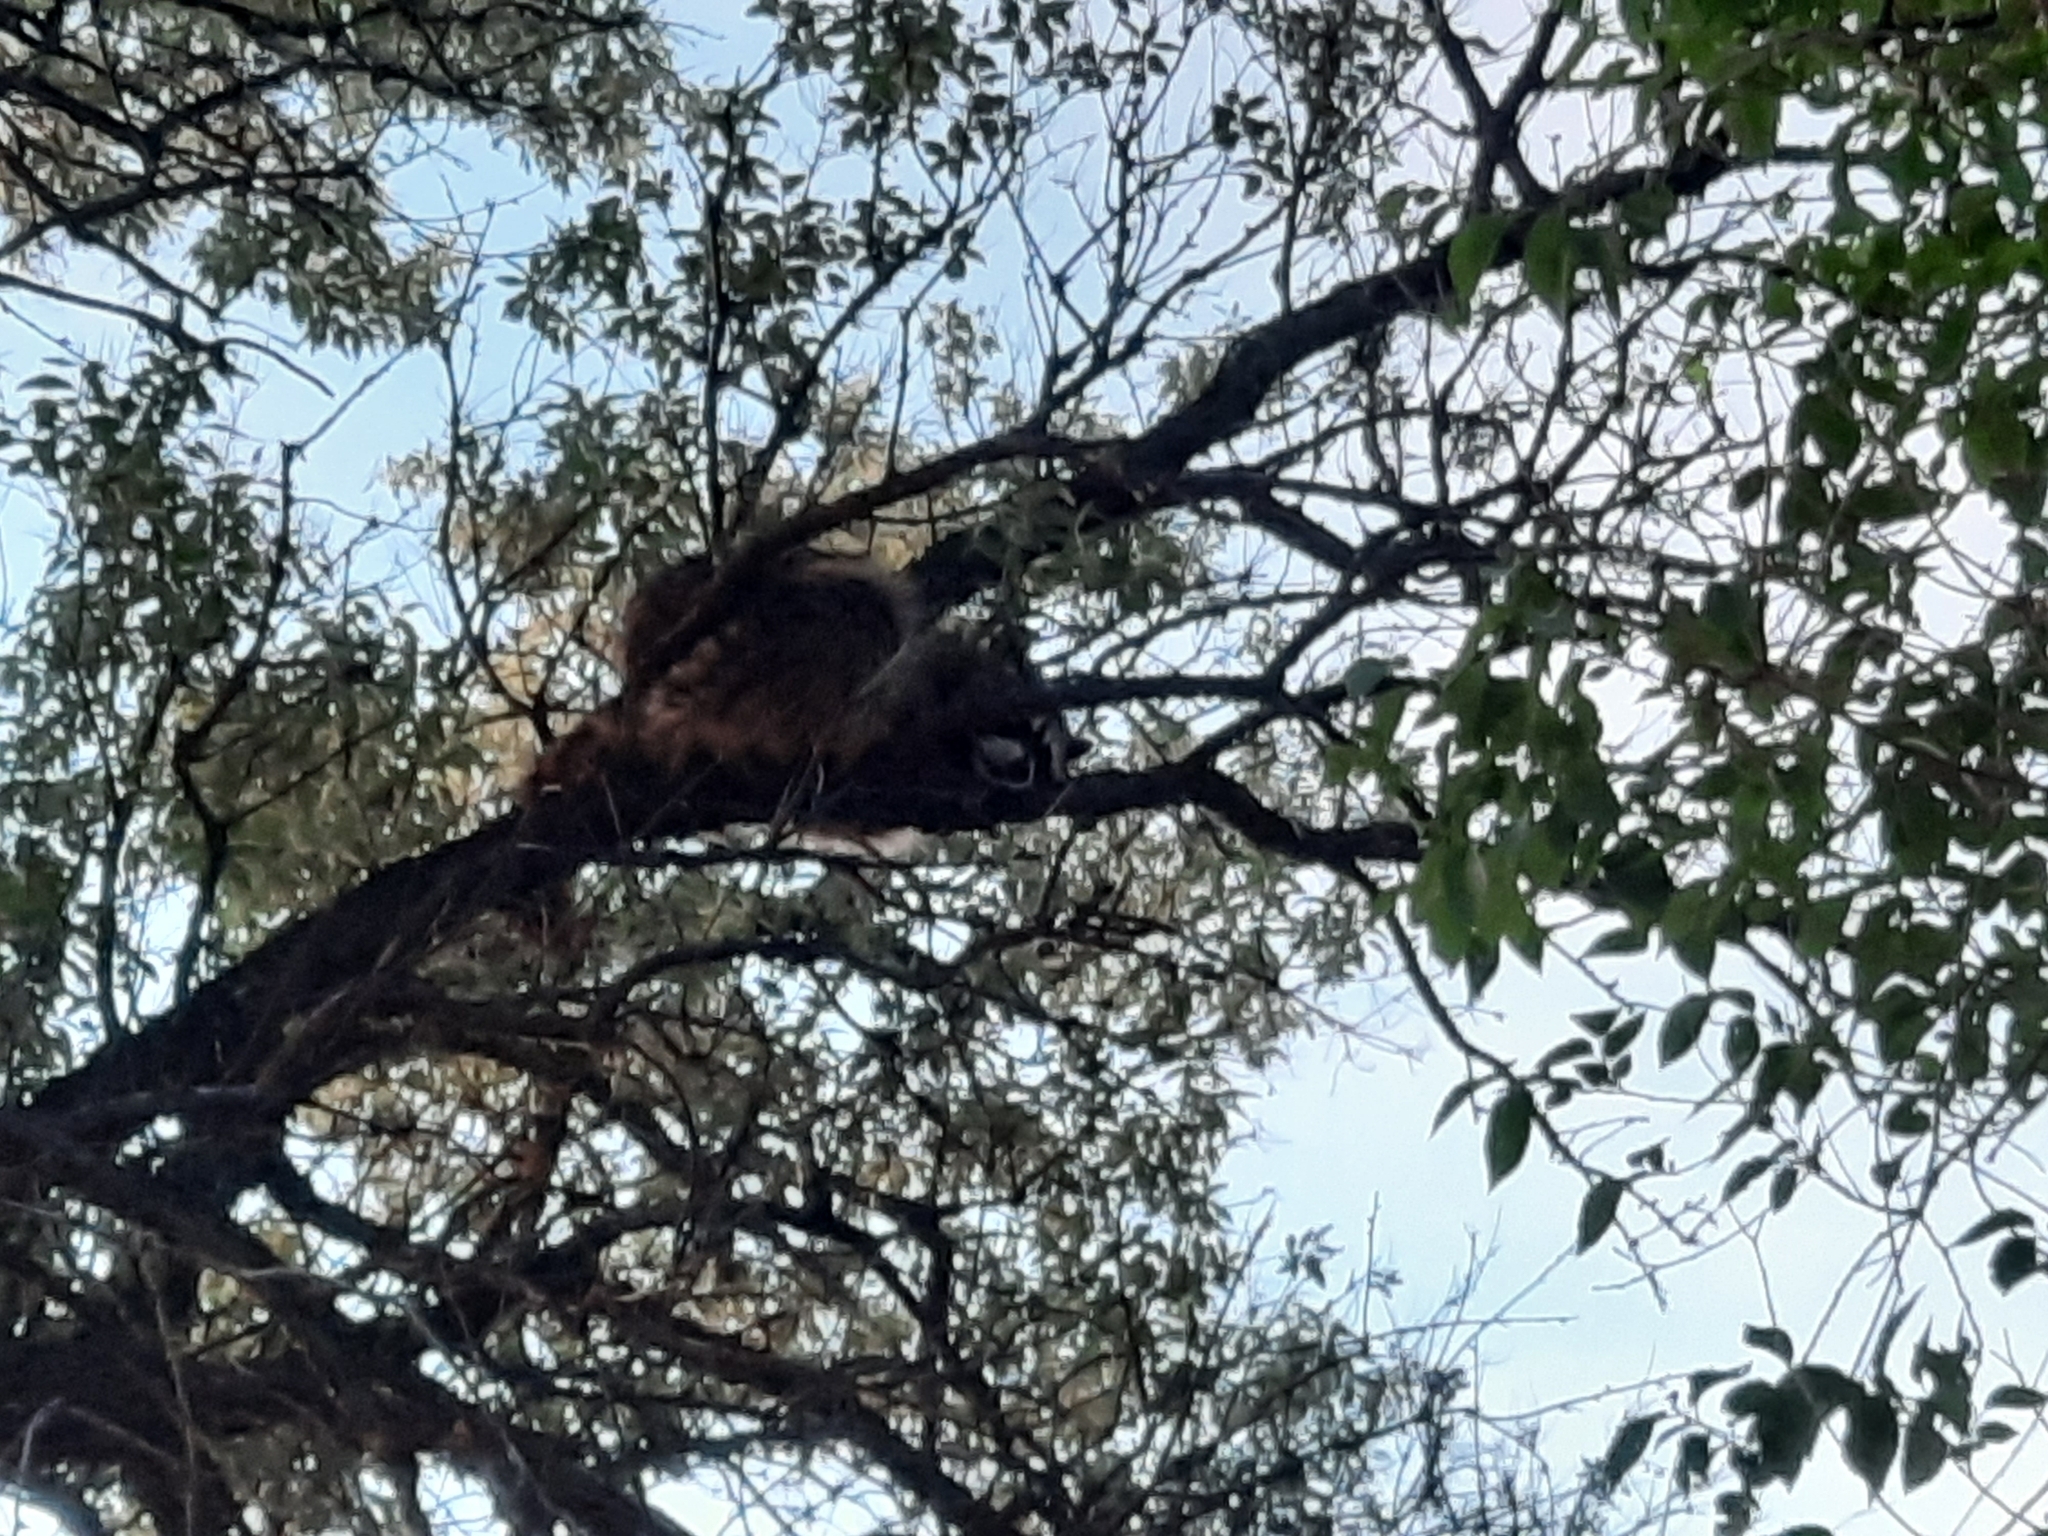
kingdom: Animalia
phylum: Chordata
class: Mammalia
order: Carnivora
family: Procyonidae
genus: Procyon
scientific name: Procyon lotor
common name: Raccoon
